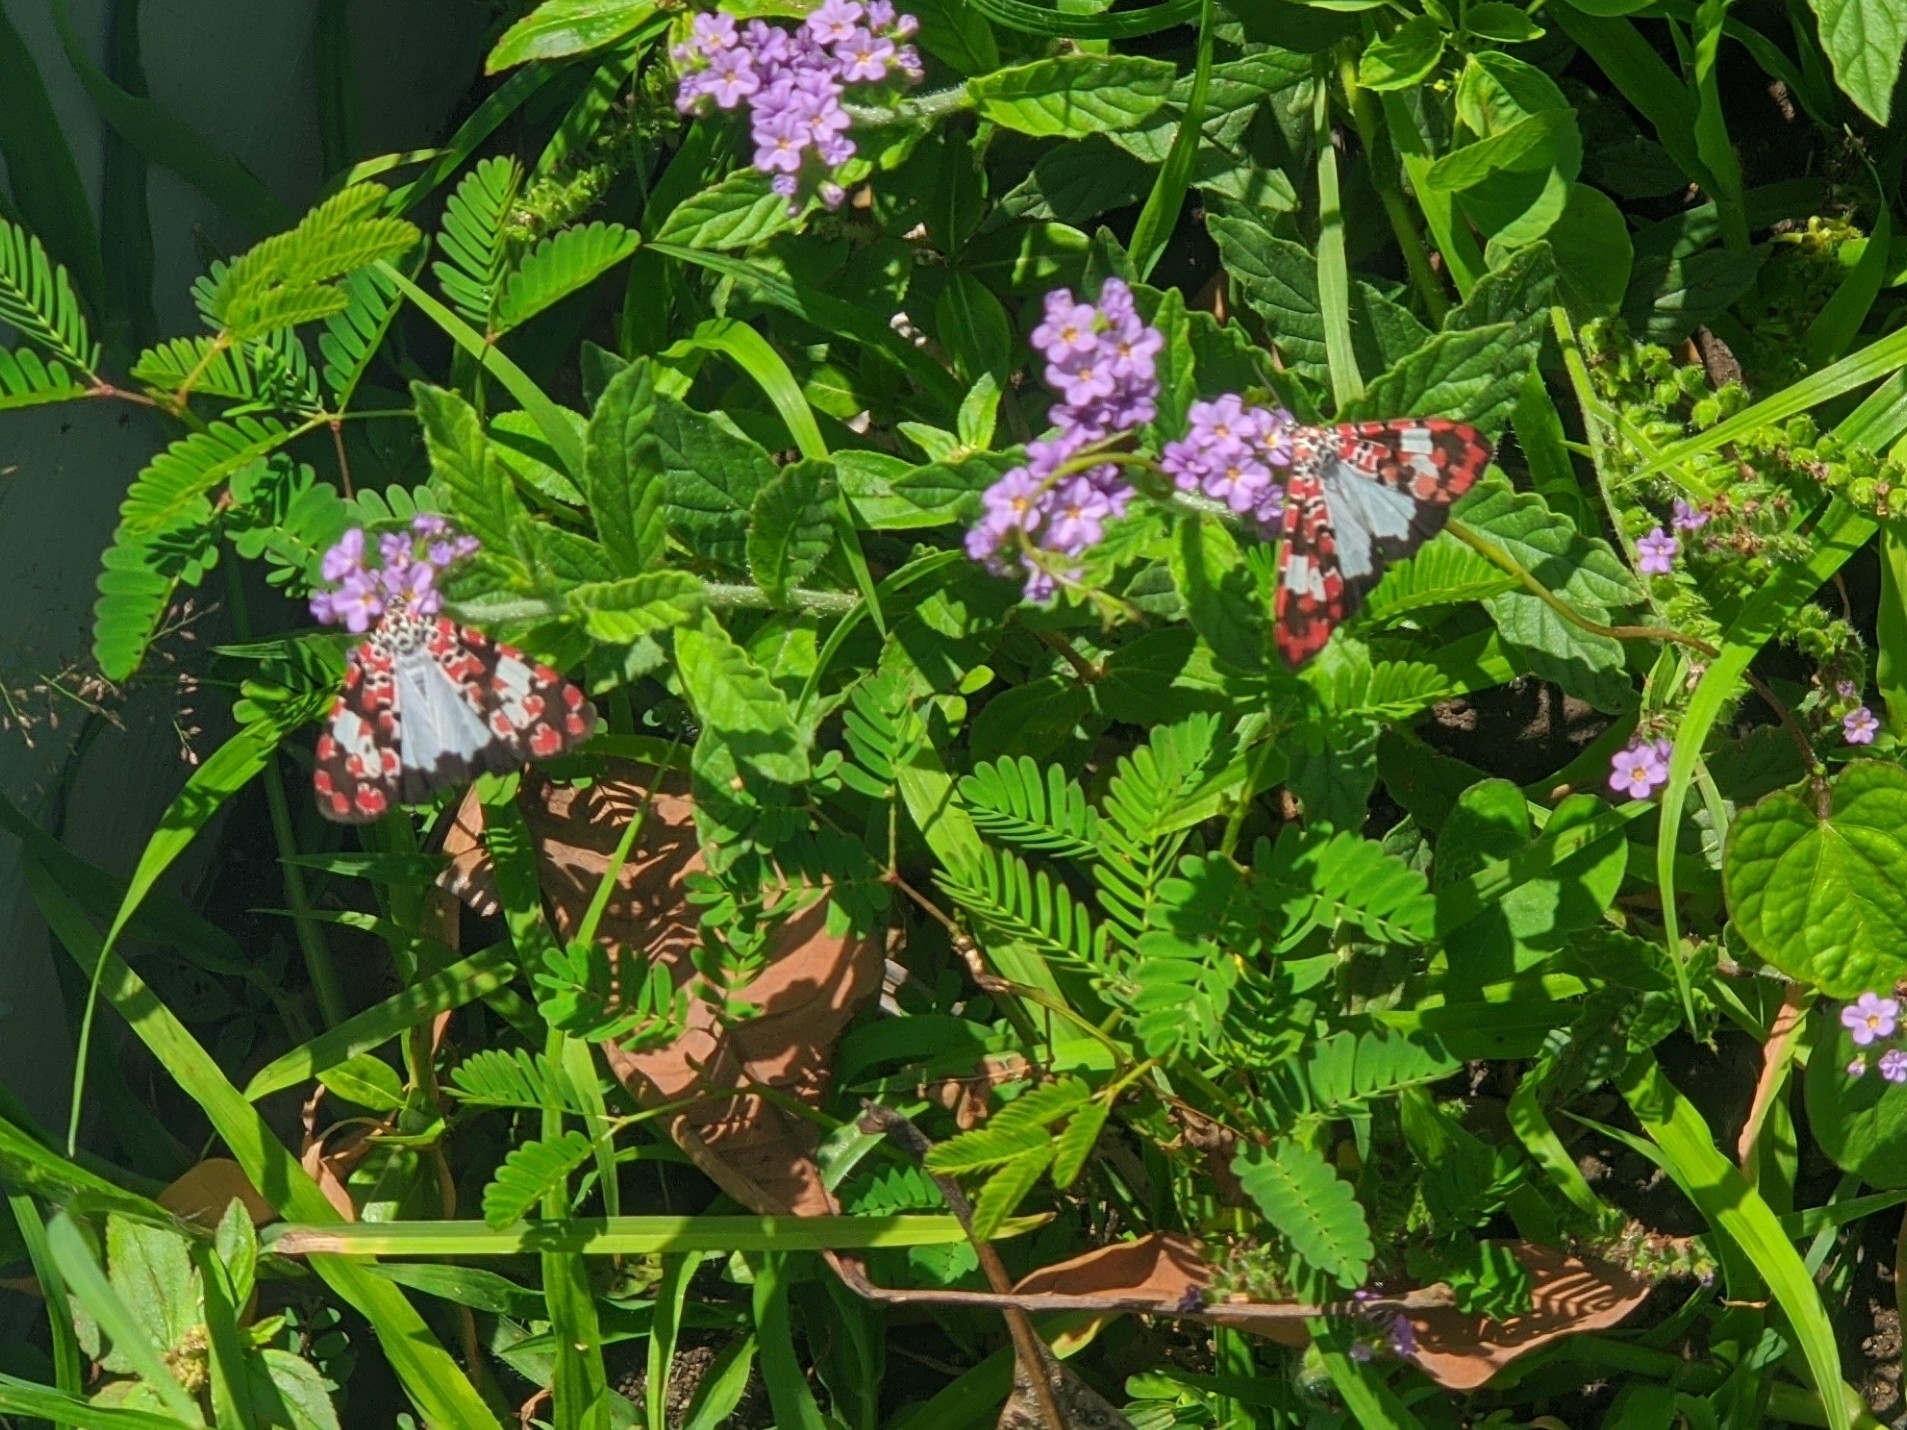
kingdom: Animalia
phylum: Arthropoda
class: Insecta
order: Lepidoptera
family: Erebidae
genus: Utetheisa
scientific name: Utetheisa elata
